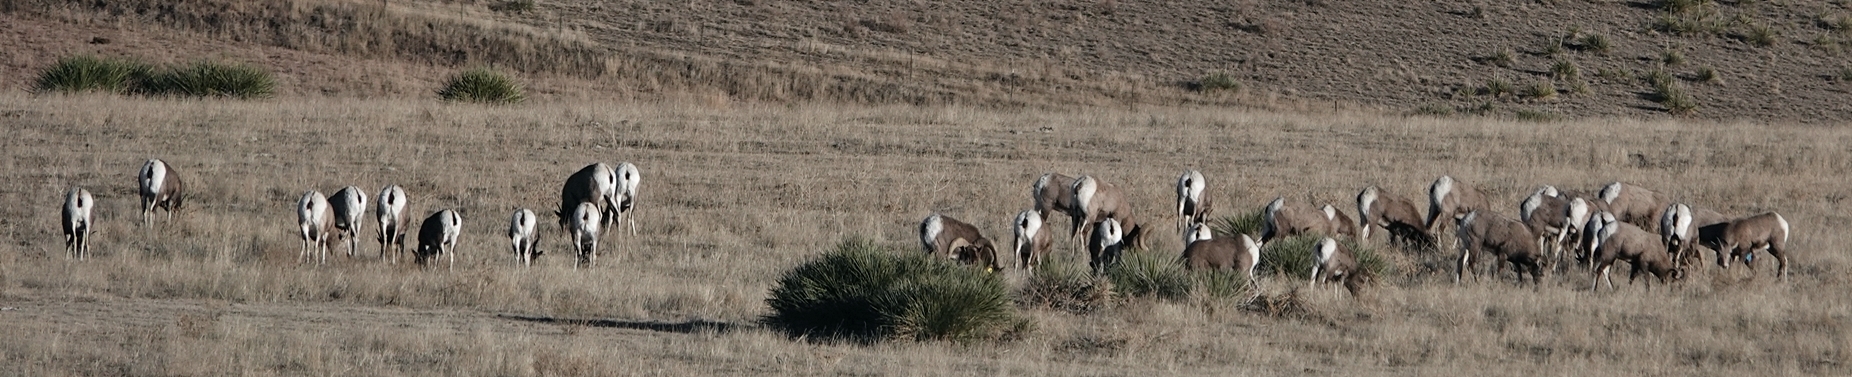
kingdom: Animalia
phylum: Chordata
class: Mammalia
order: Artiodactyla
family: Bovidae
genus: Ovis
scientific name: Ovis canadensis
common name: Bighorn sheep
